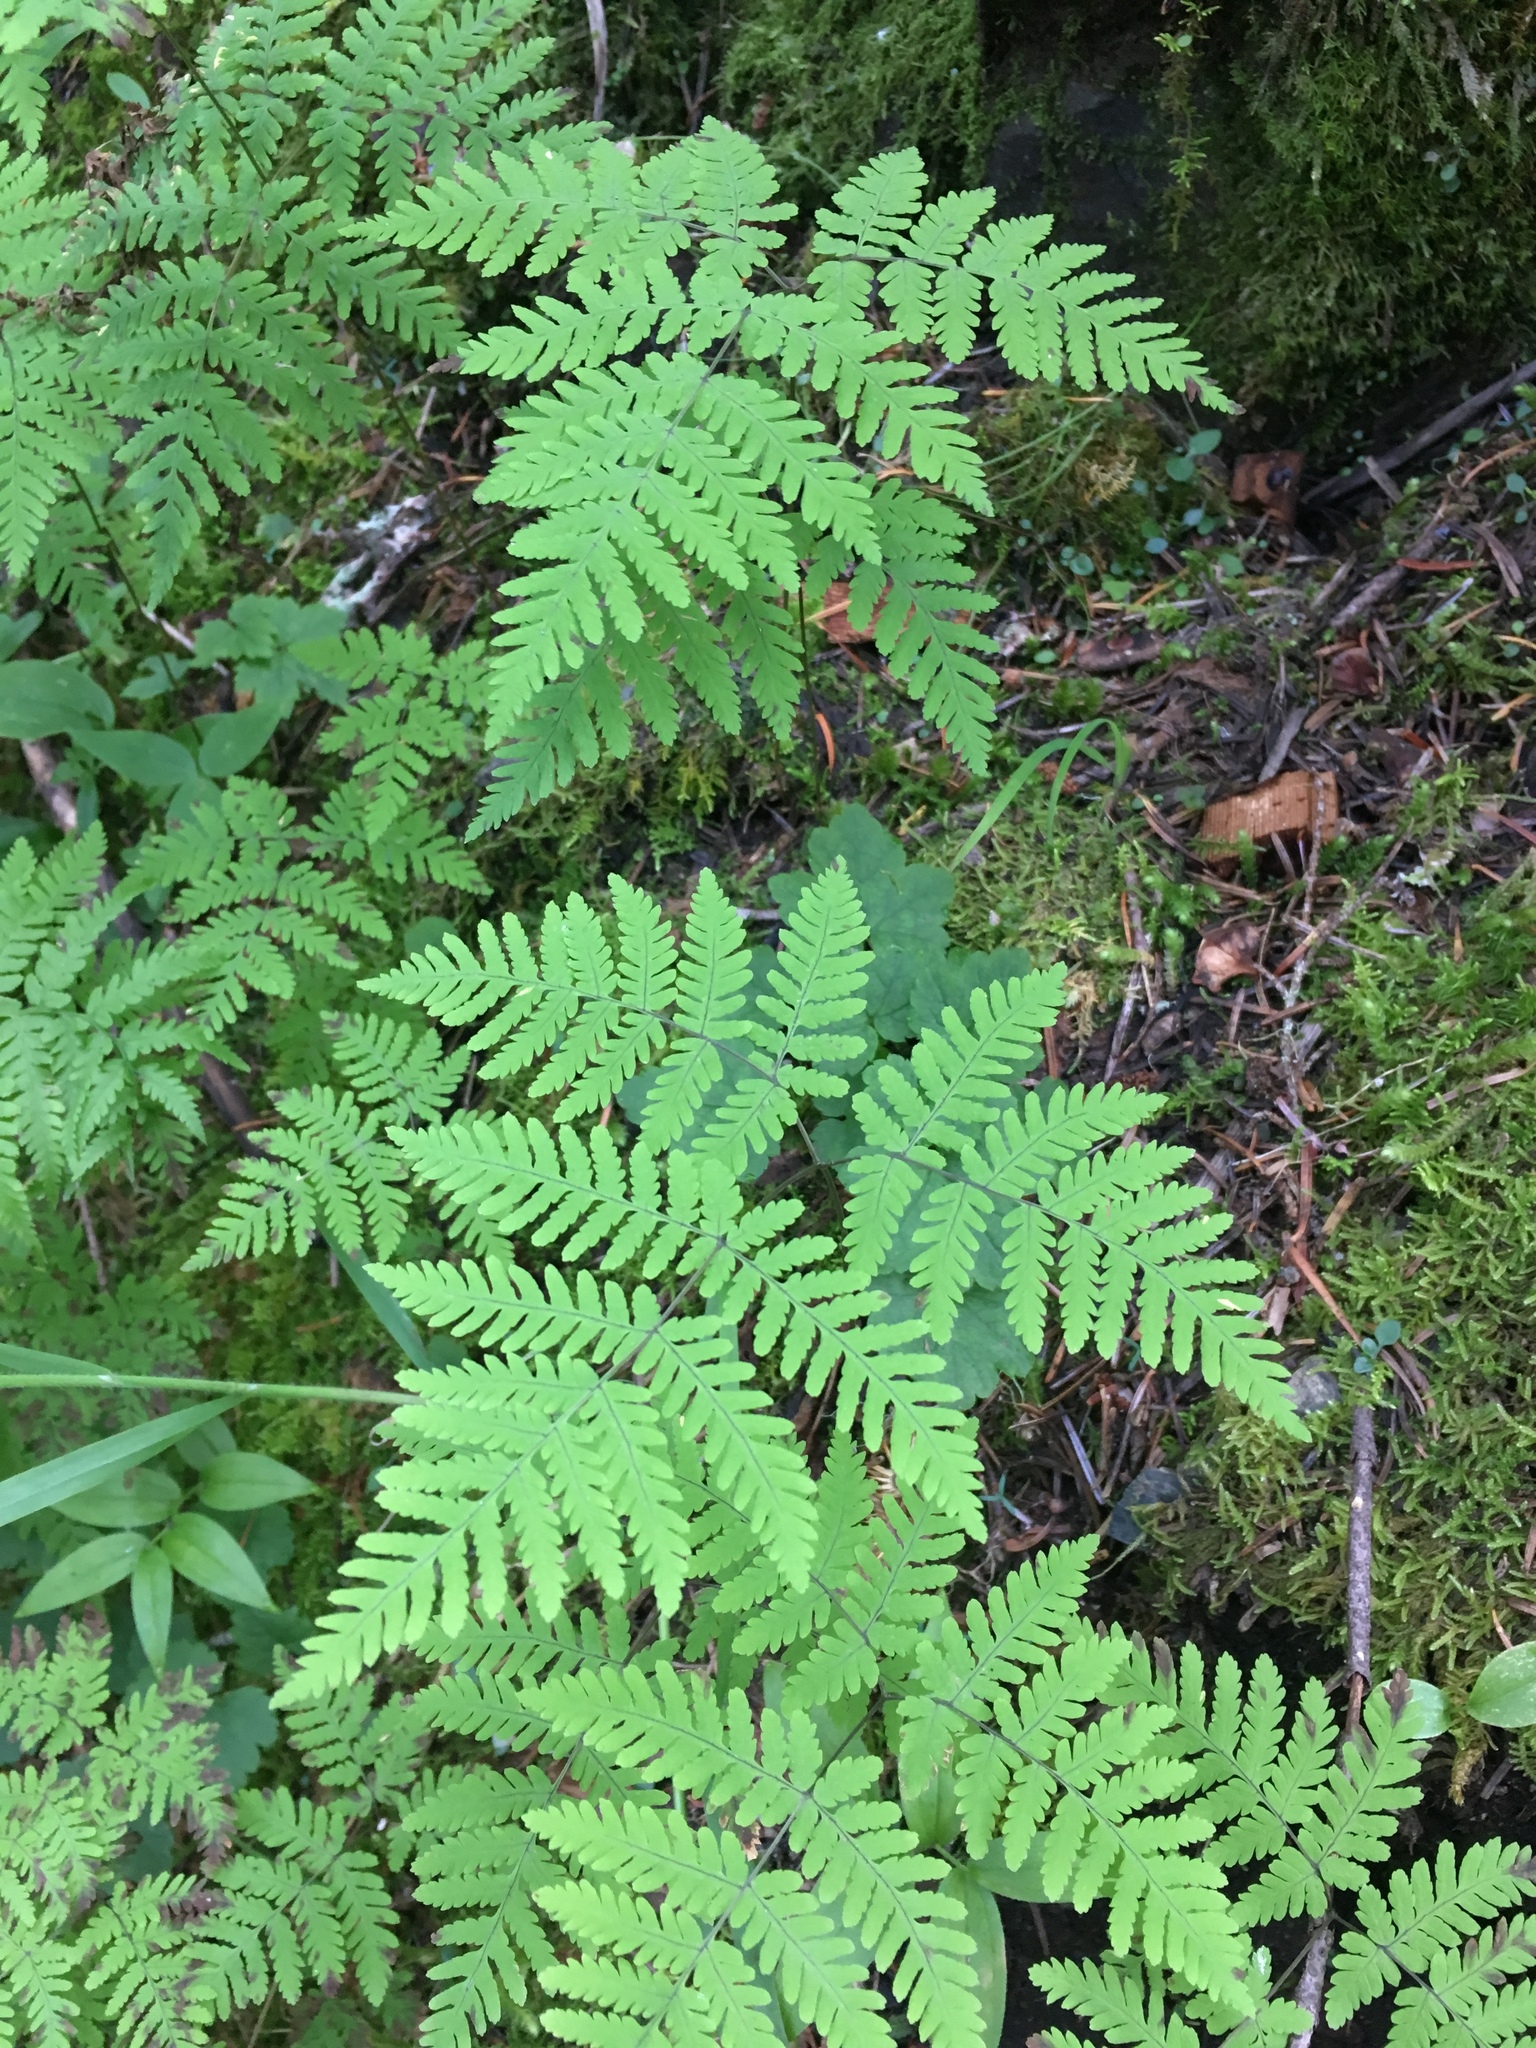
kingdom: Plantae
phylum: Tracheophyta
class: Polypodiopsida
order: Polypodiales
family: Cystopteridaceae
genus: Gymnocarpium
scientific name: Gymnocarpium disjunctum
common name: Western oak fern
